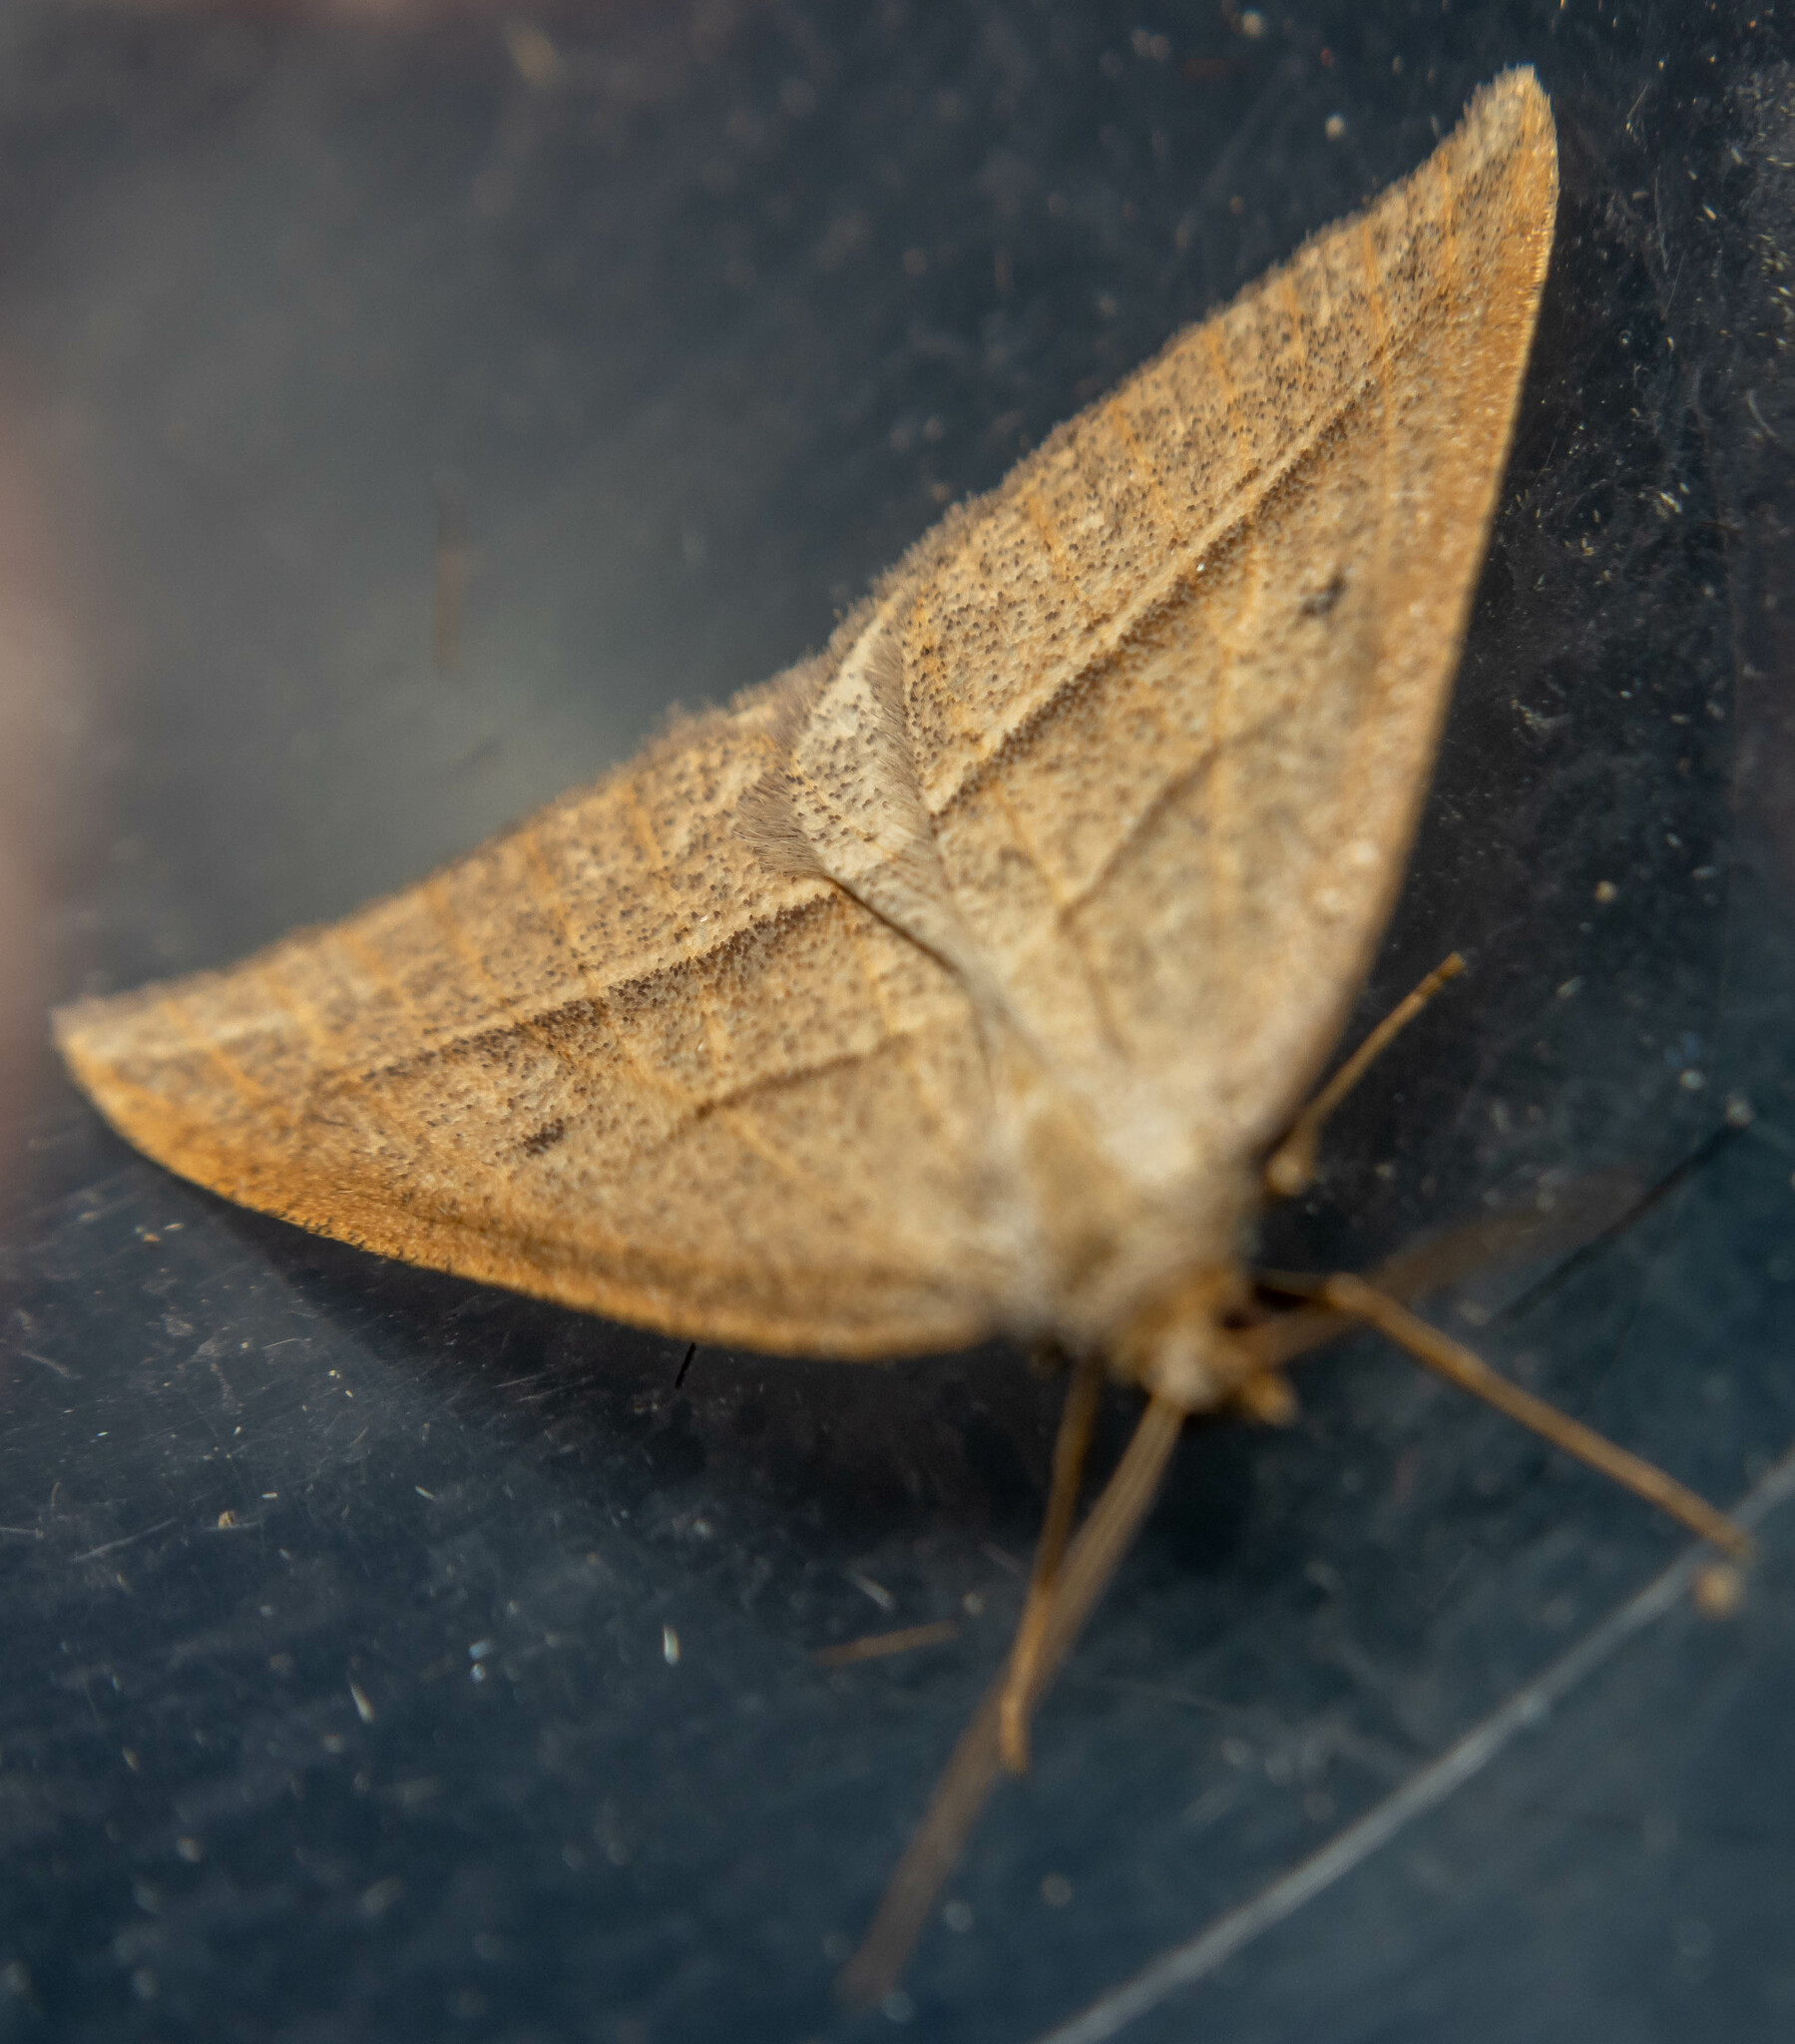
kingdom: Animalia
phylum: Arthropoda
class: Insecta
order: Lepidoptera
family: Pterophoridae
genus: Pterophorus
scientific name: Pterophorus Petrophora chlorosata
